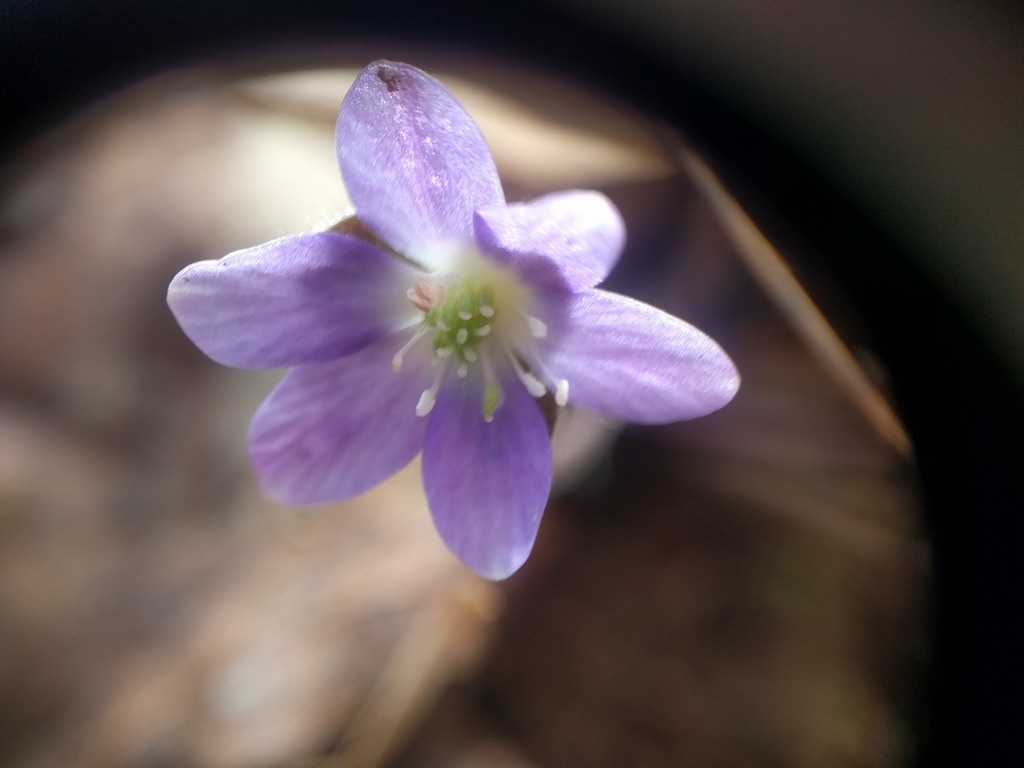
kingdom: Plantae
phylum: Tracheophyta
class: Magnoliopsida
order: Ranunculales
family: Ranunculaceae
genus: Hepatica
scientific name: Hepatica americana
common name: American hepatica
